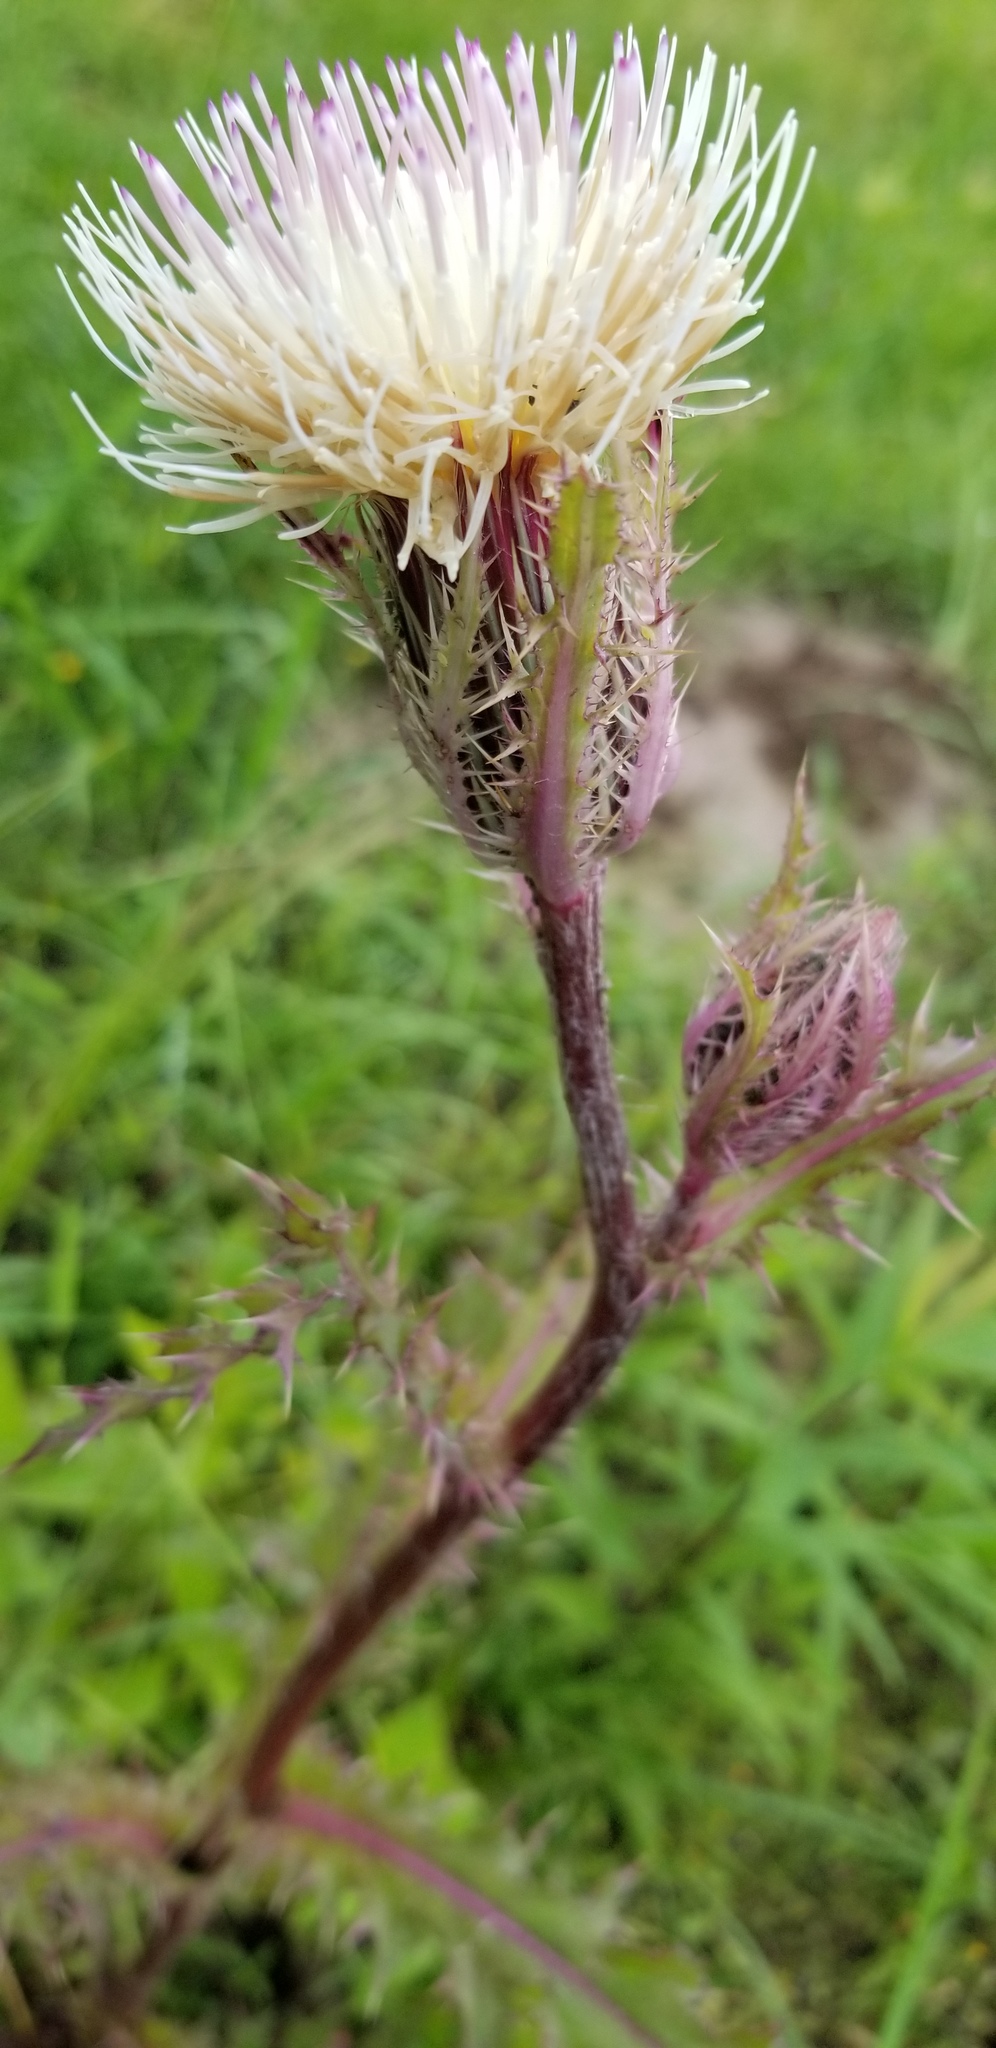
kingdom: Plantae
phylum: Tracheophyta
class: Magnoliopsida
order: Asterales
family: Asteraceae
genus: Cirsium
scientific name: Cirsium horridulum
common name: Bristly thistle
